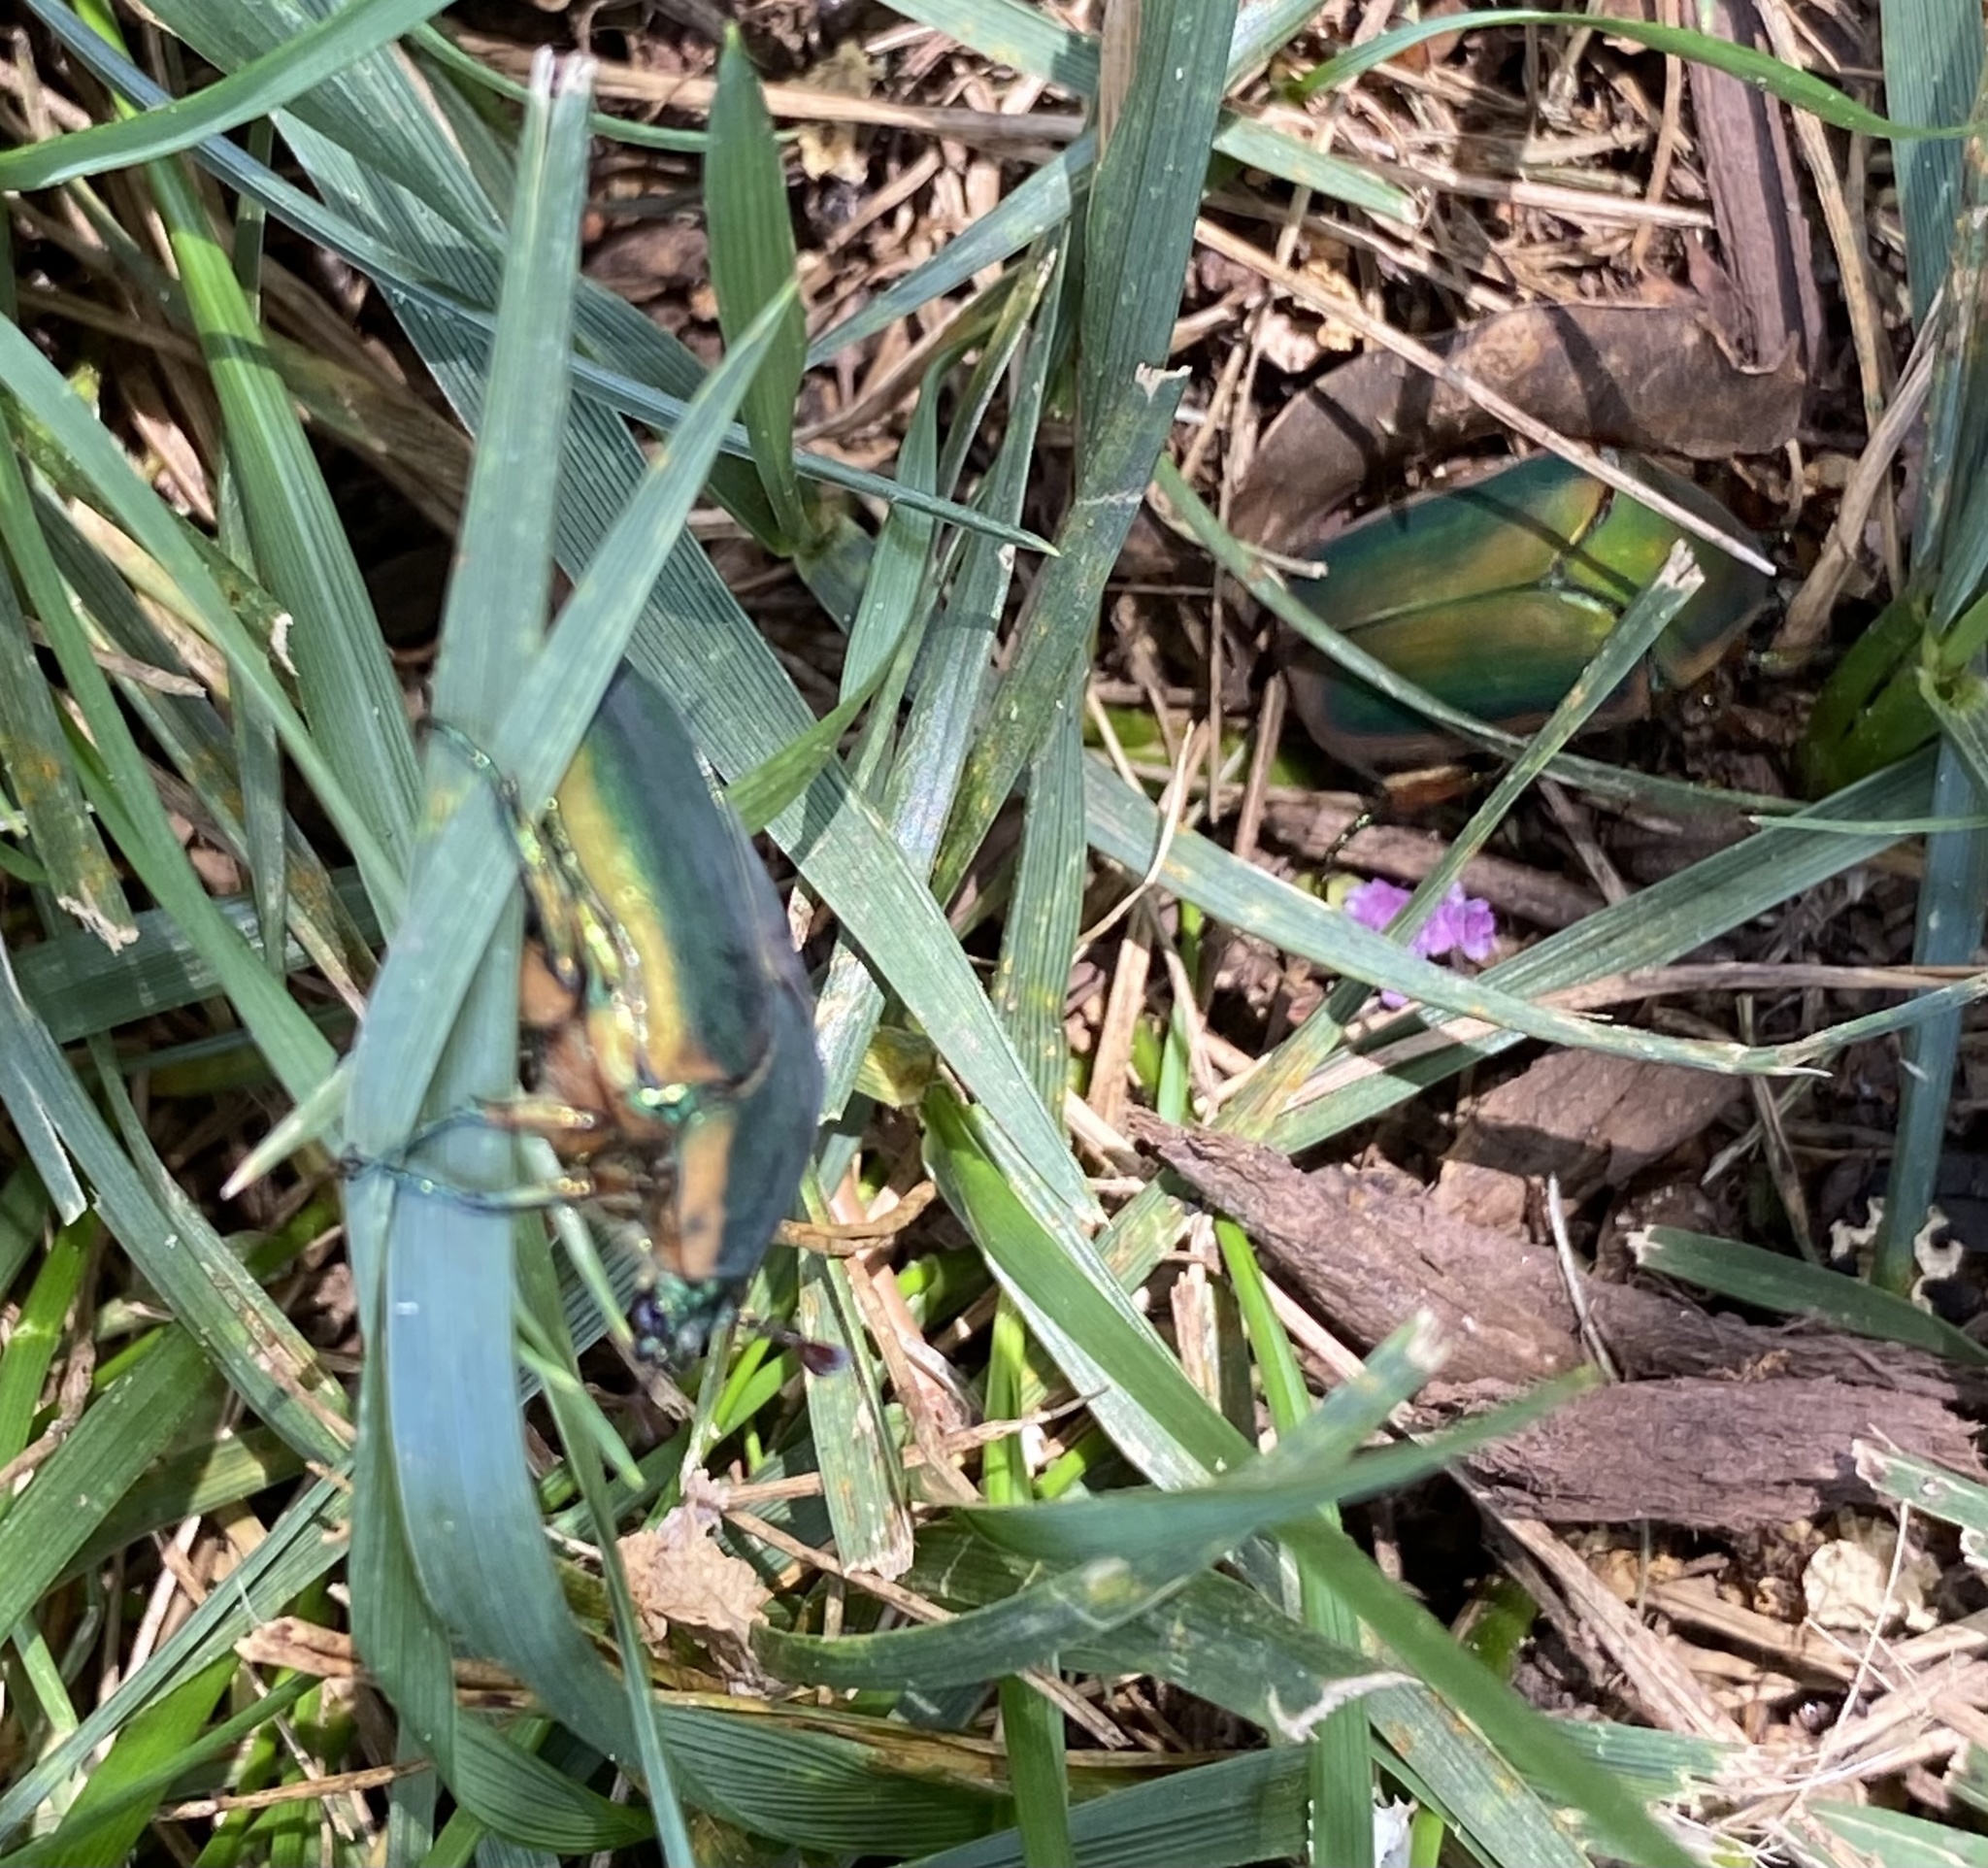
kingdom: Animalia
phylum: Arthropoda
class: Insecta
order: Coleoptera
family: Scarabaeidae
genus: Cotinis
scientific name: Cotinis nitida
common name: Common green june beetle
